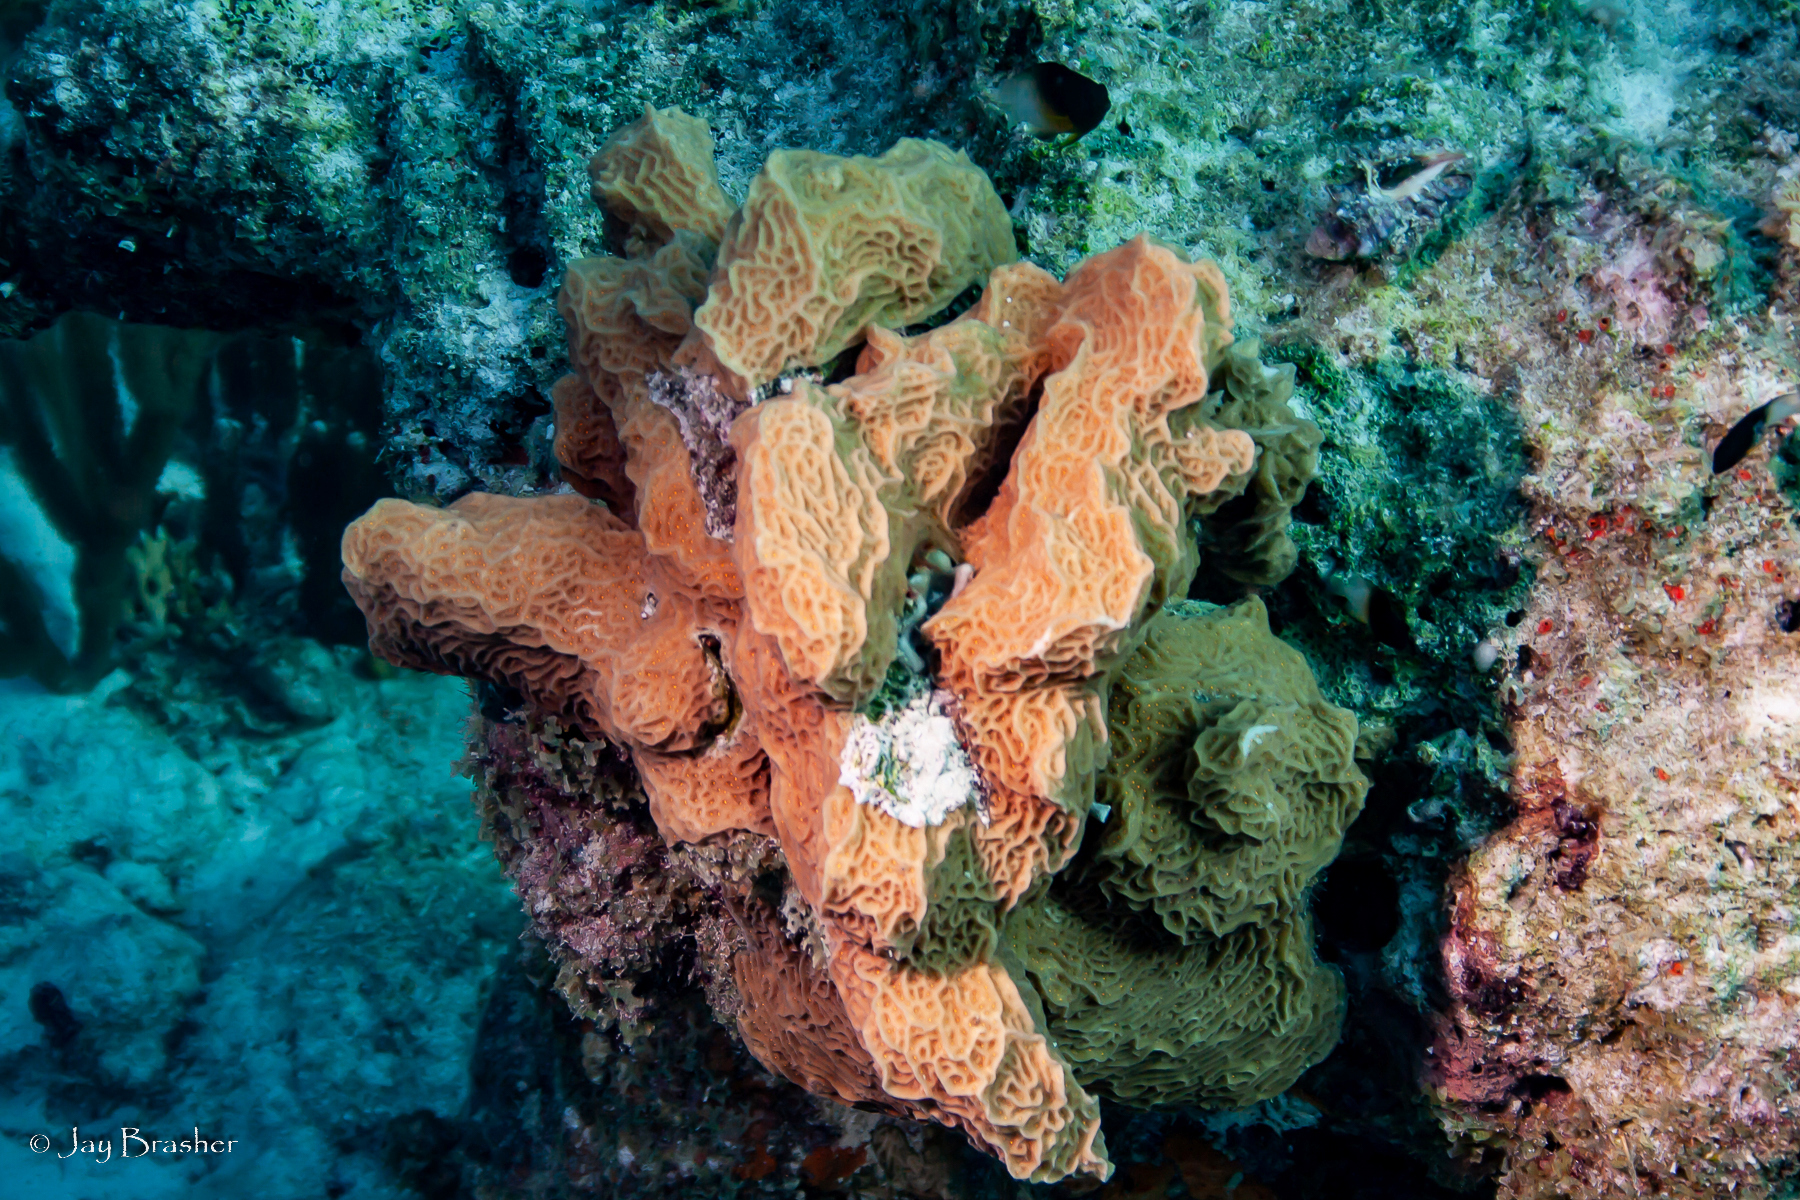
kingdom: Animalia
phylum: Cnidaria
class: Anthozoa
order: Scleractinia
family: Agariciidae
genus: Agaricia
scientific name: Agaricia agaricites
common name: Lettuce coral
